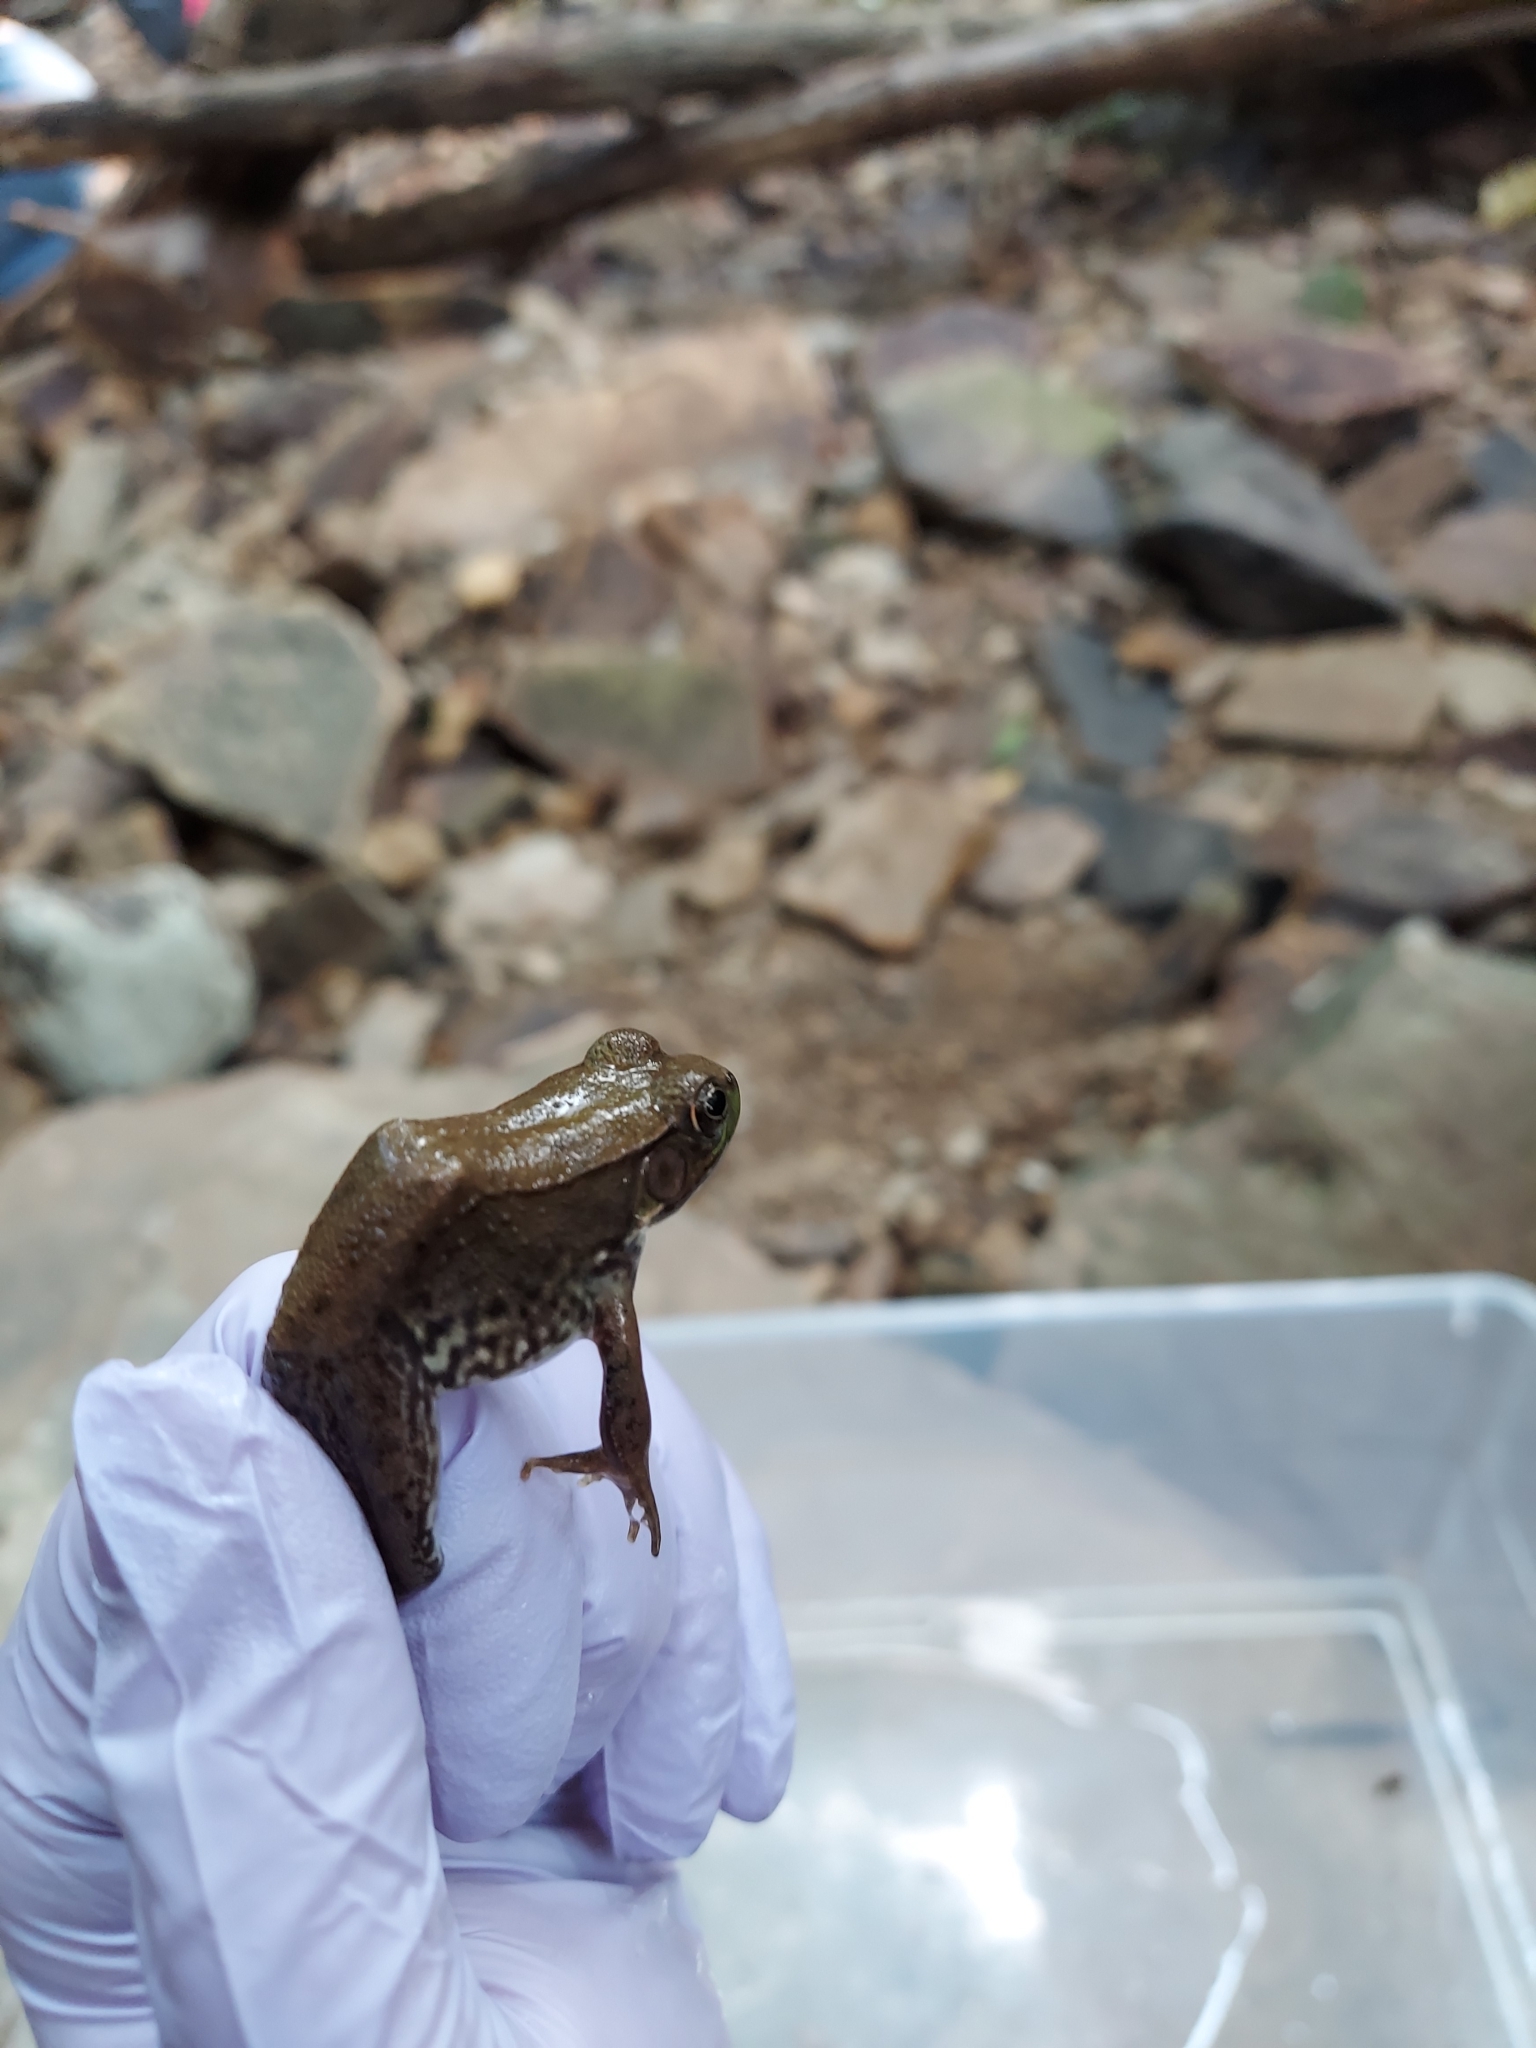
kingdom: Animalia
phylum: Chordata
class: Amphibia
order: Anura
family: Ranidae
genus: Lithobates
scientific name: Lithobates clamitans
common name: Green frog
